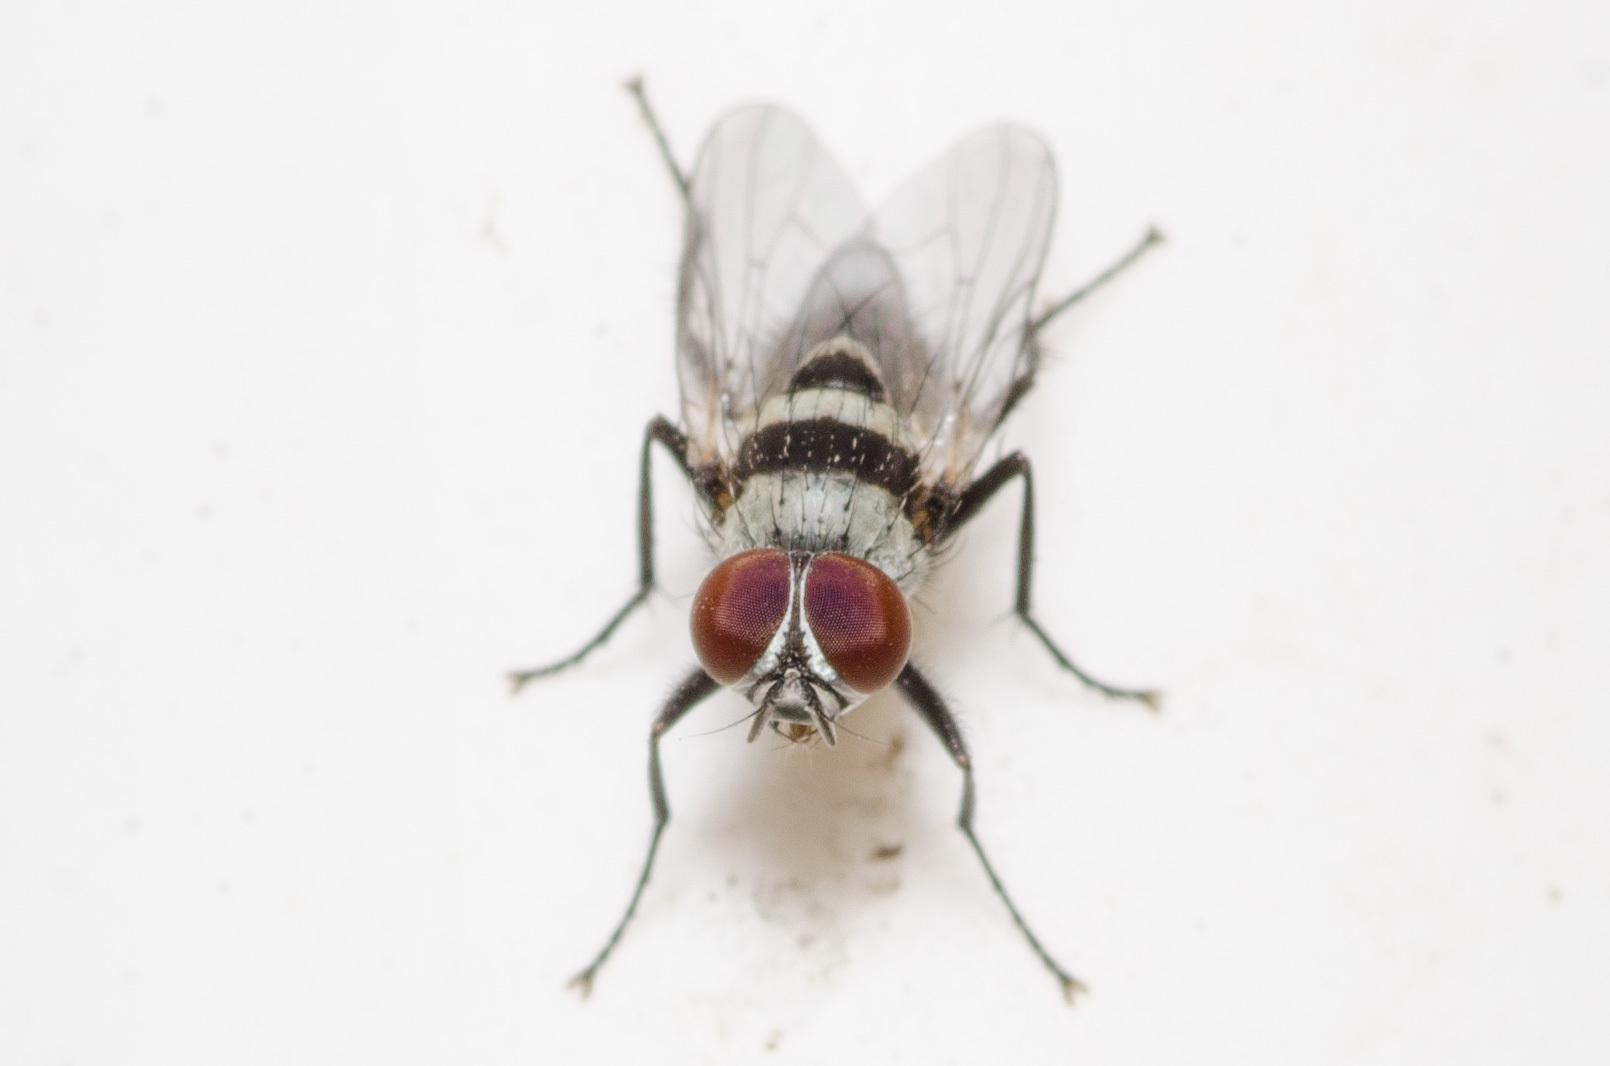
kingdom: Animalia
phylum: Arthropoda
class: Insecta
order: Diptera
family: Anthomyiidae
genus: Anthomyia
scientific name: Anthomyia illocata
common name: Fly
